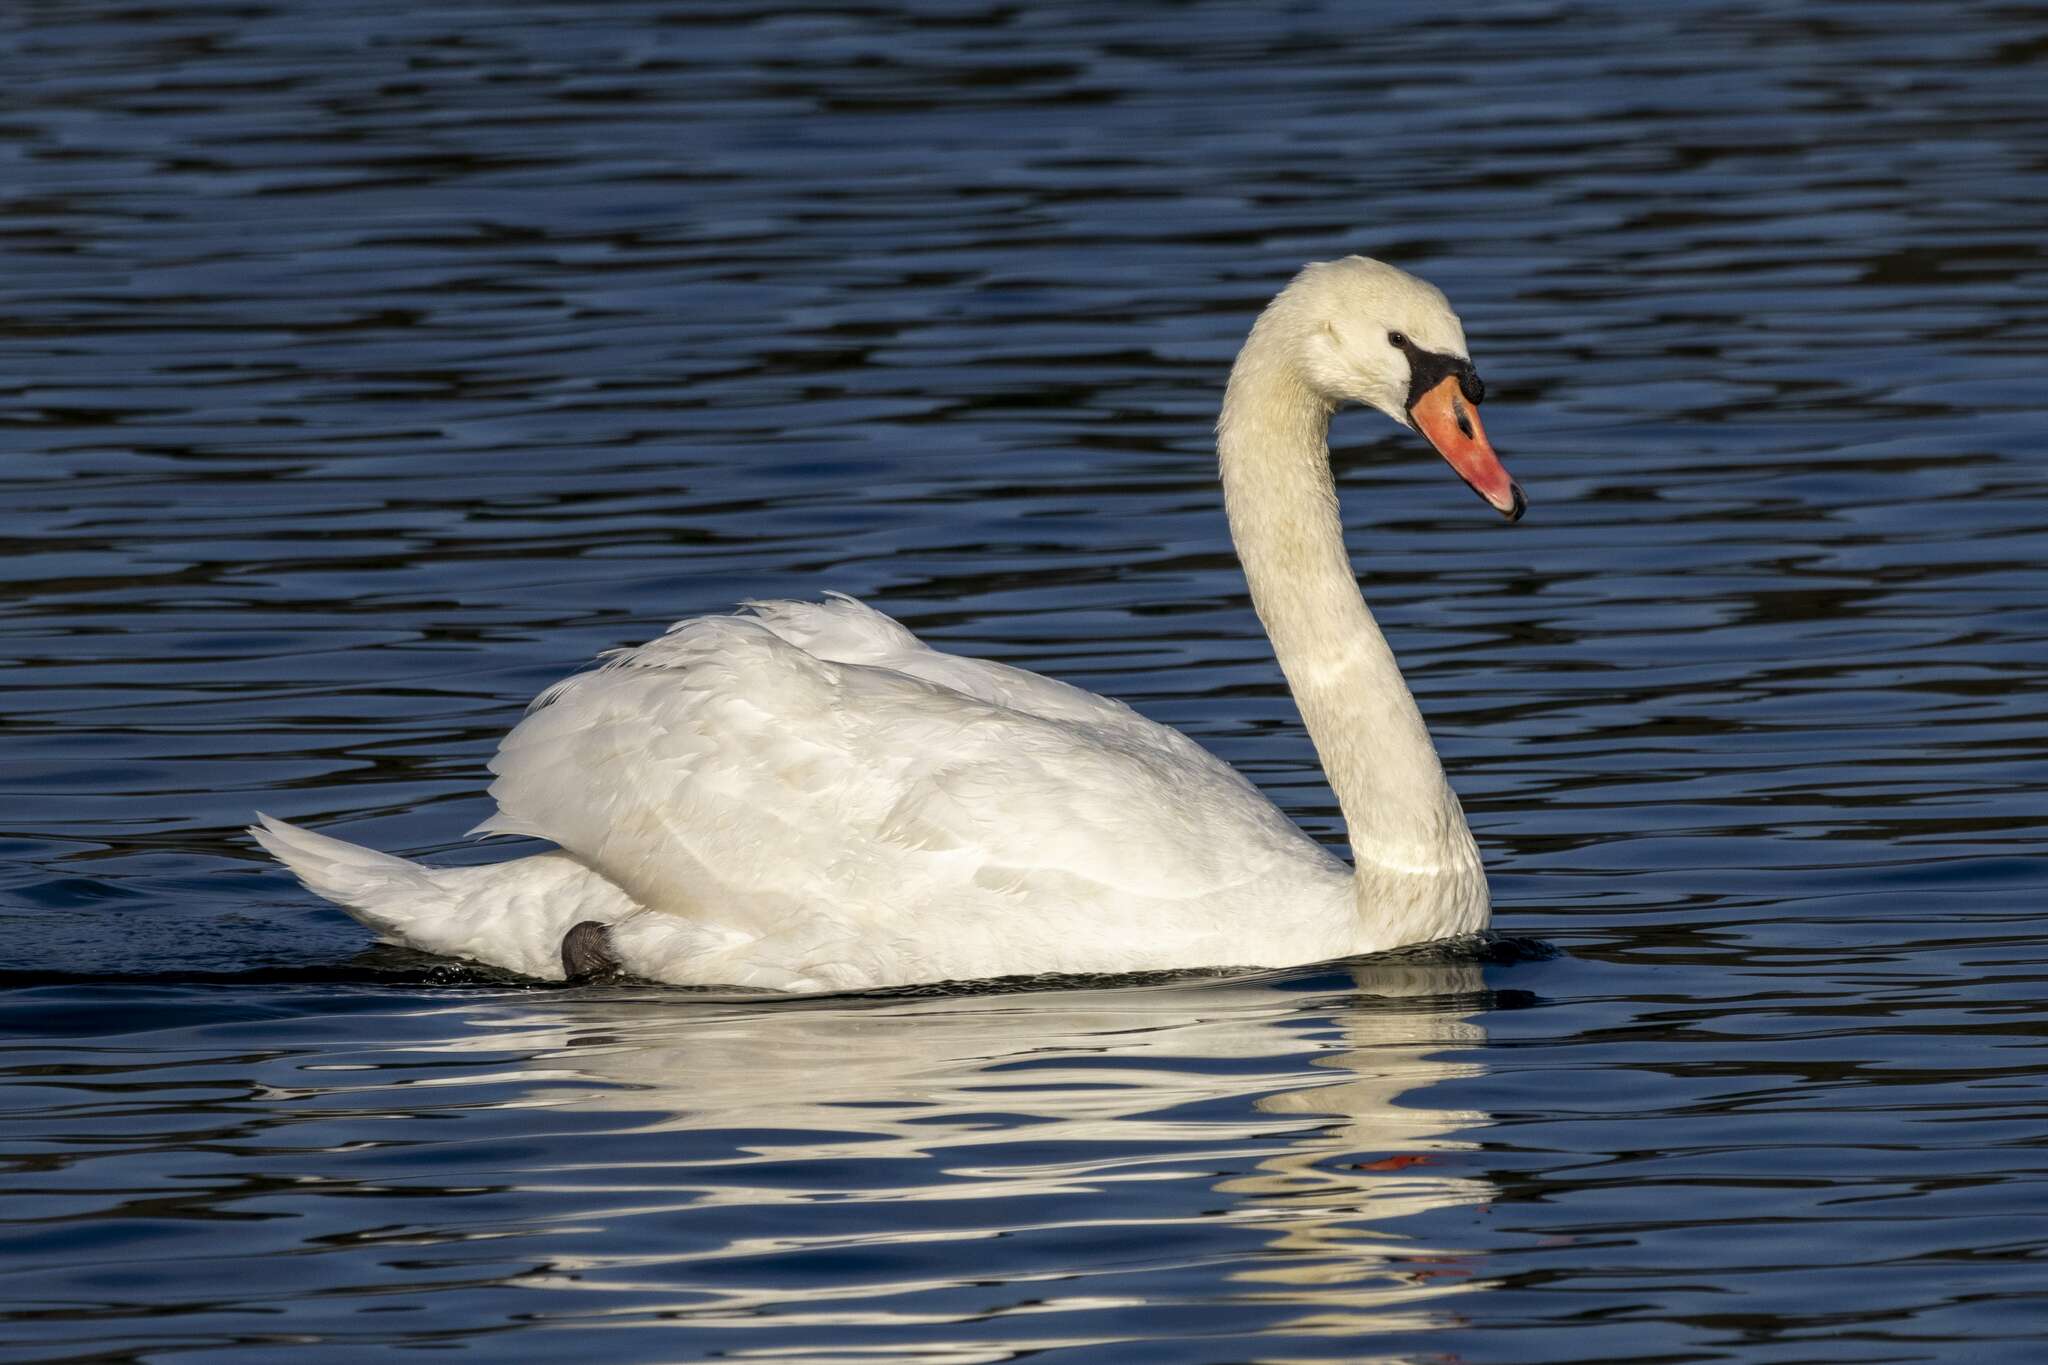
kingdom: Animalia
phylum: Chordata
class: Aves
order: Anseriformes
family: Anatidae
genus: Cygnus
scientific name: Cygnus olor
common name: Mute swan
